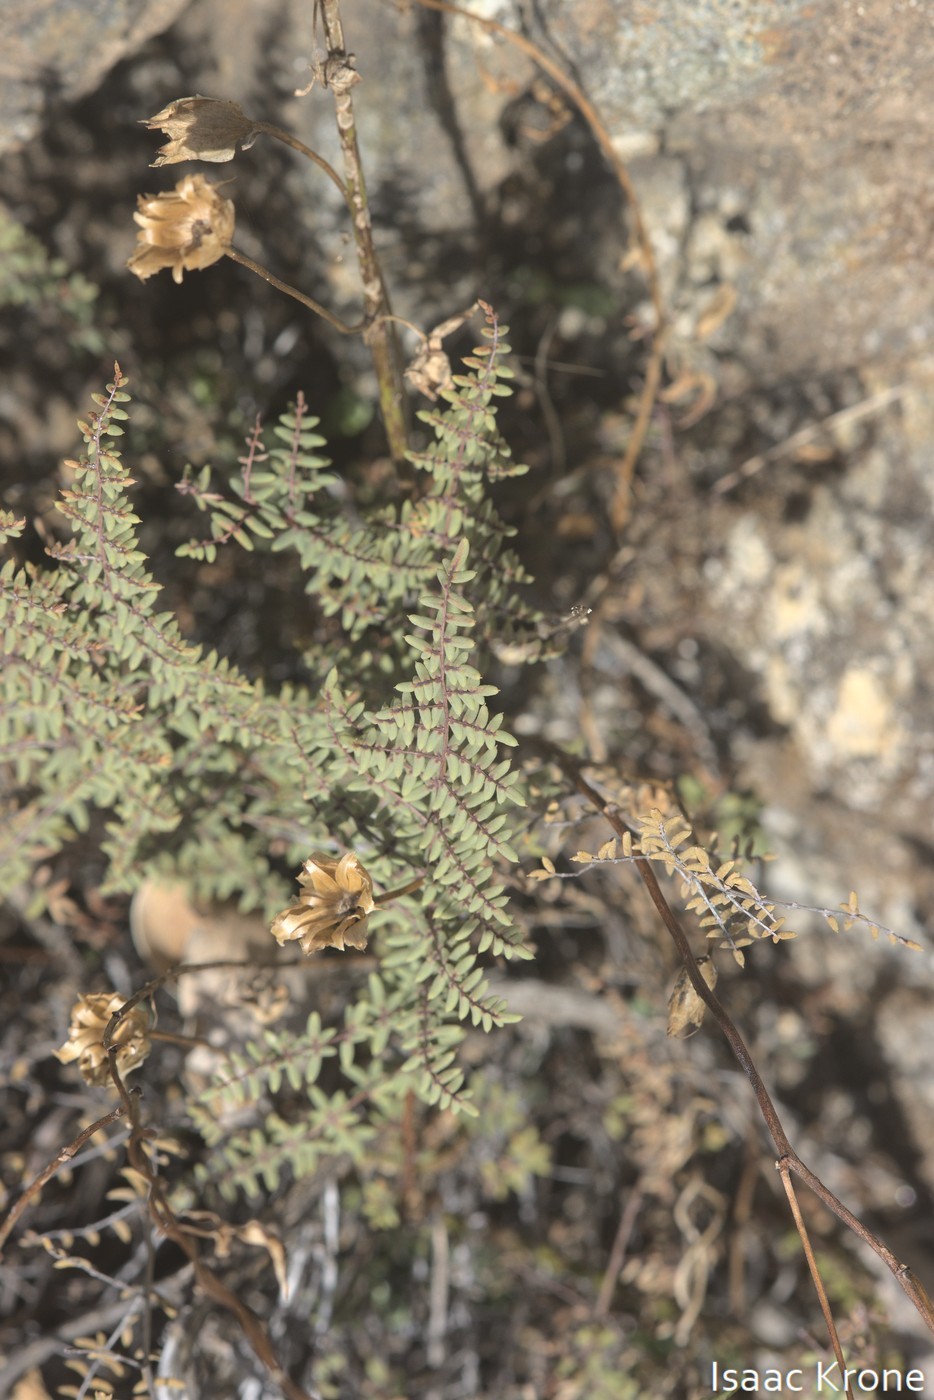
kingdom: Plantae
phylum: Tracheophyta
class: Polypodiopsida
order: Polypodiales
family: Pteridaceae
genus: Pellaea
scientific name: Pellaea mucronata
